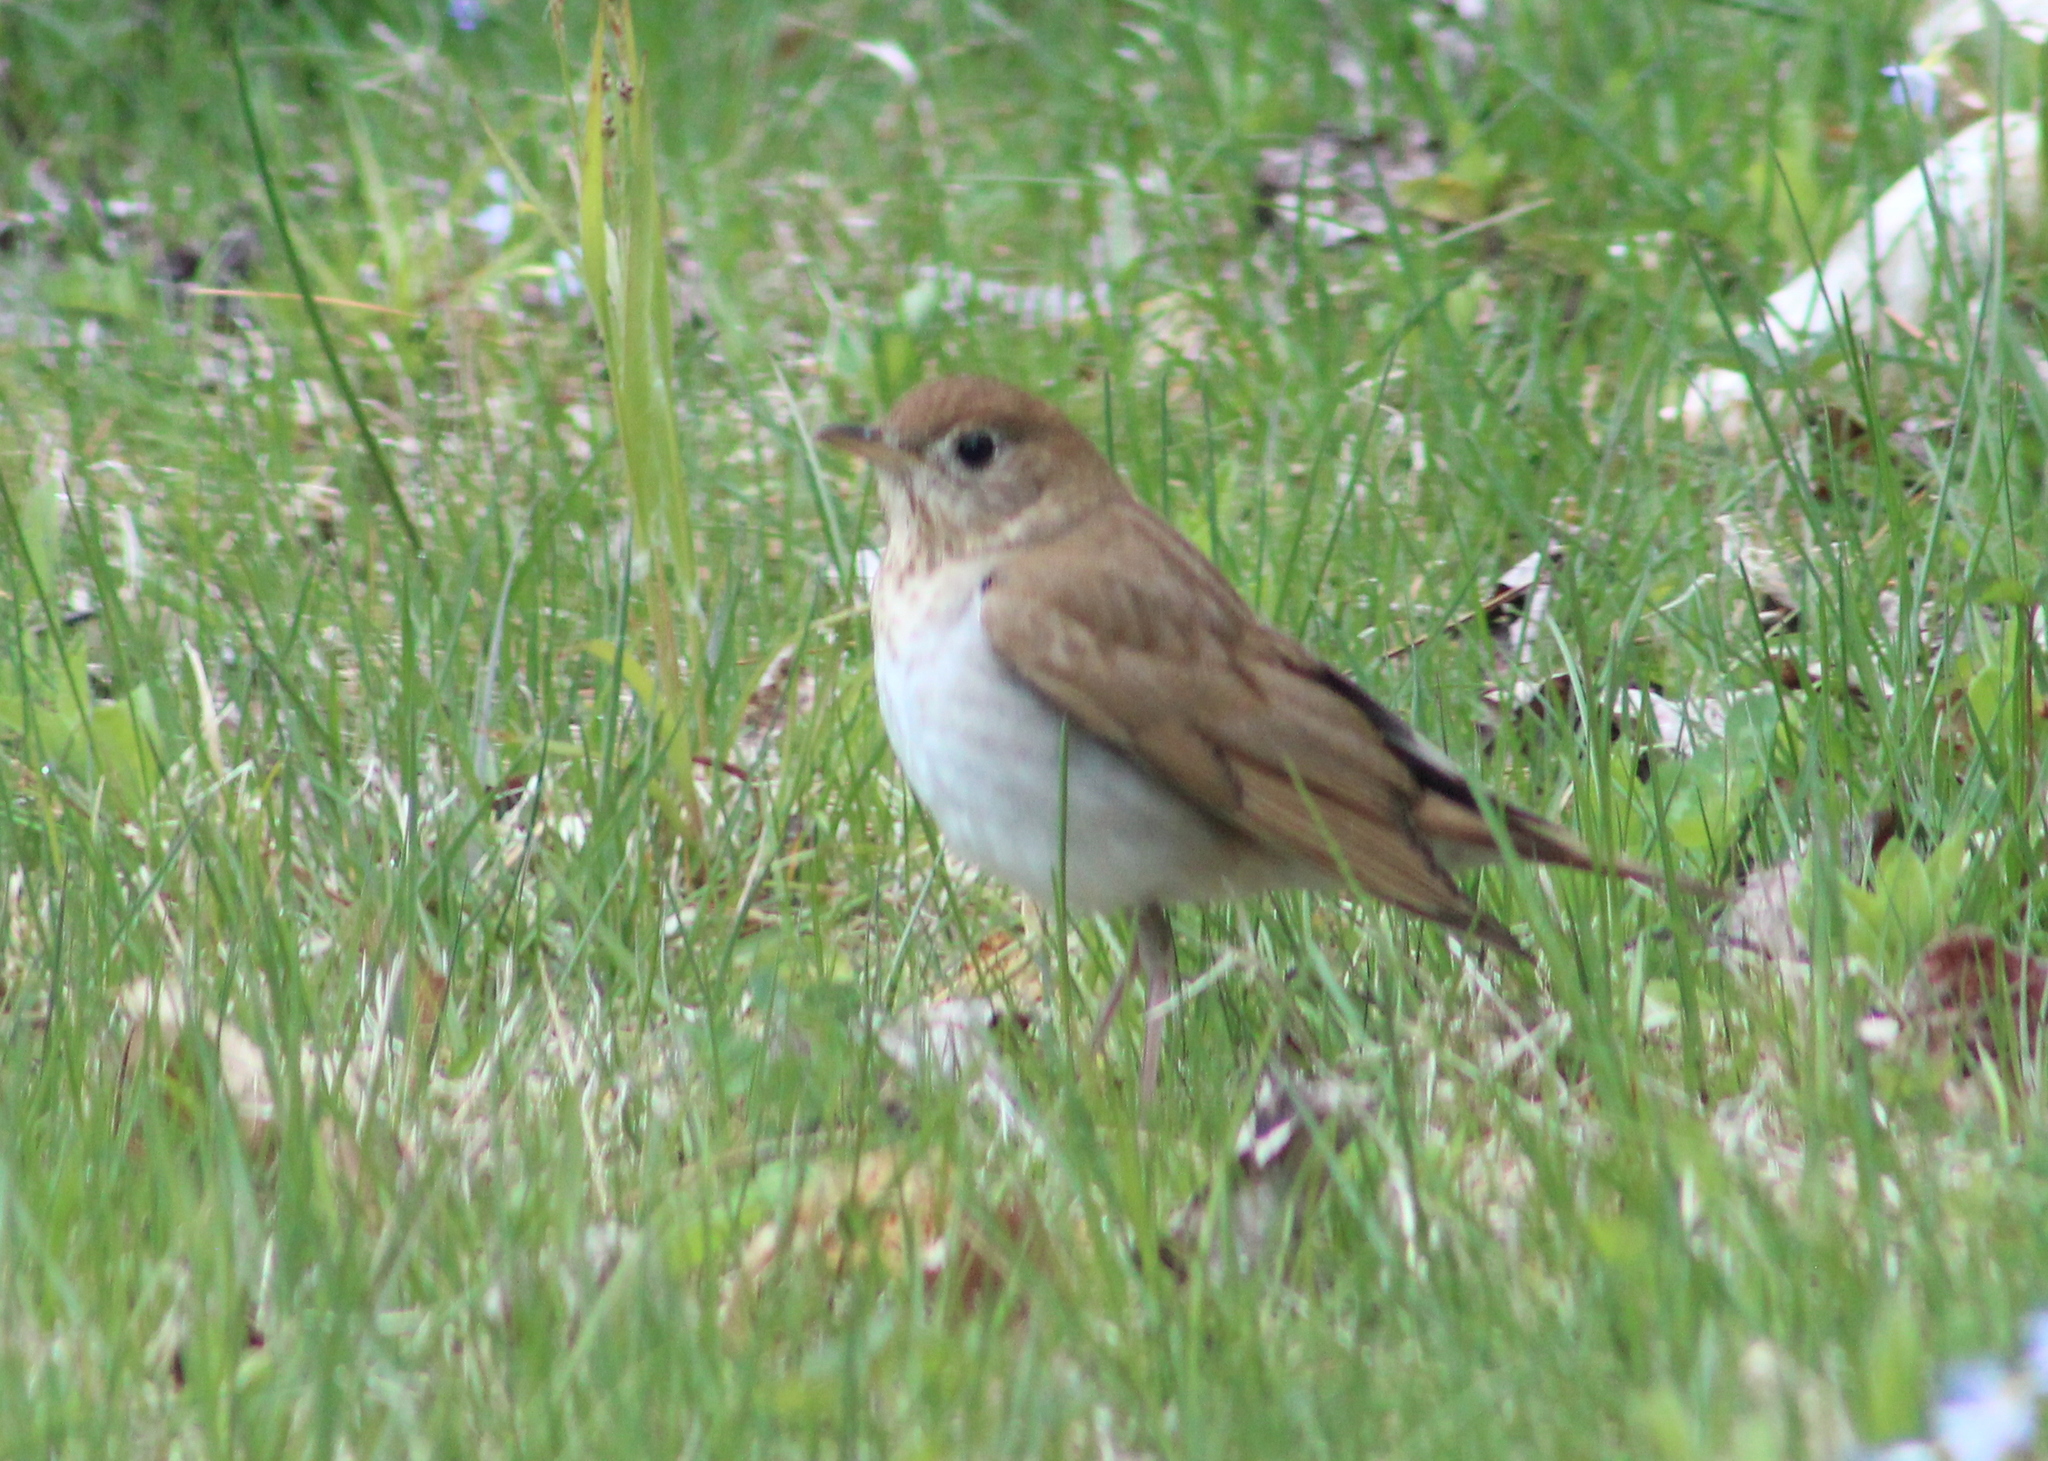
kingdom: Animalia
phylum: Chordata
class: Aves
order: Passeriformes
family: Turdidae
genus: Catharus
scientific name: Catharus fuscescens
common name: Veery
